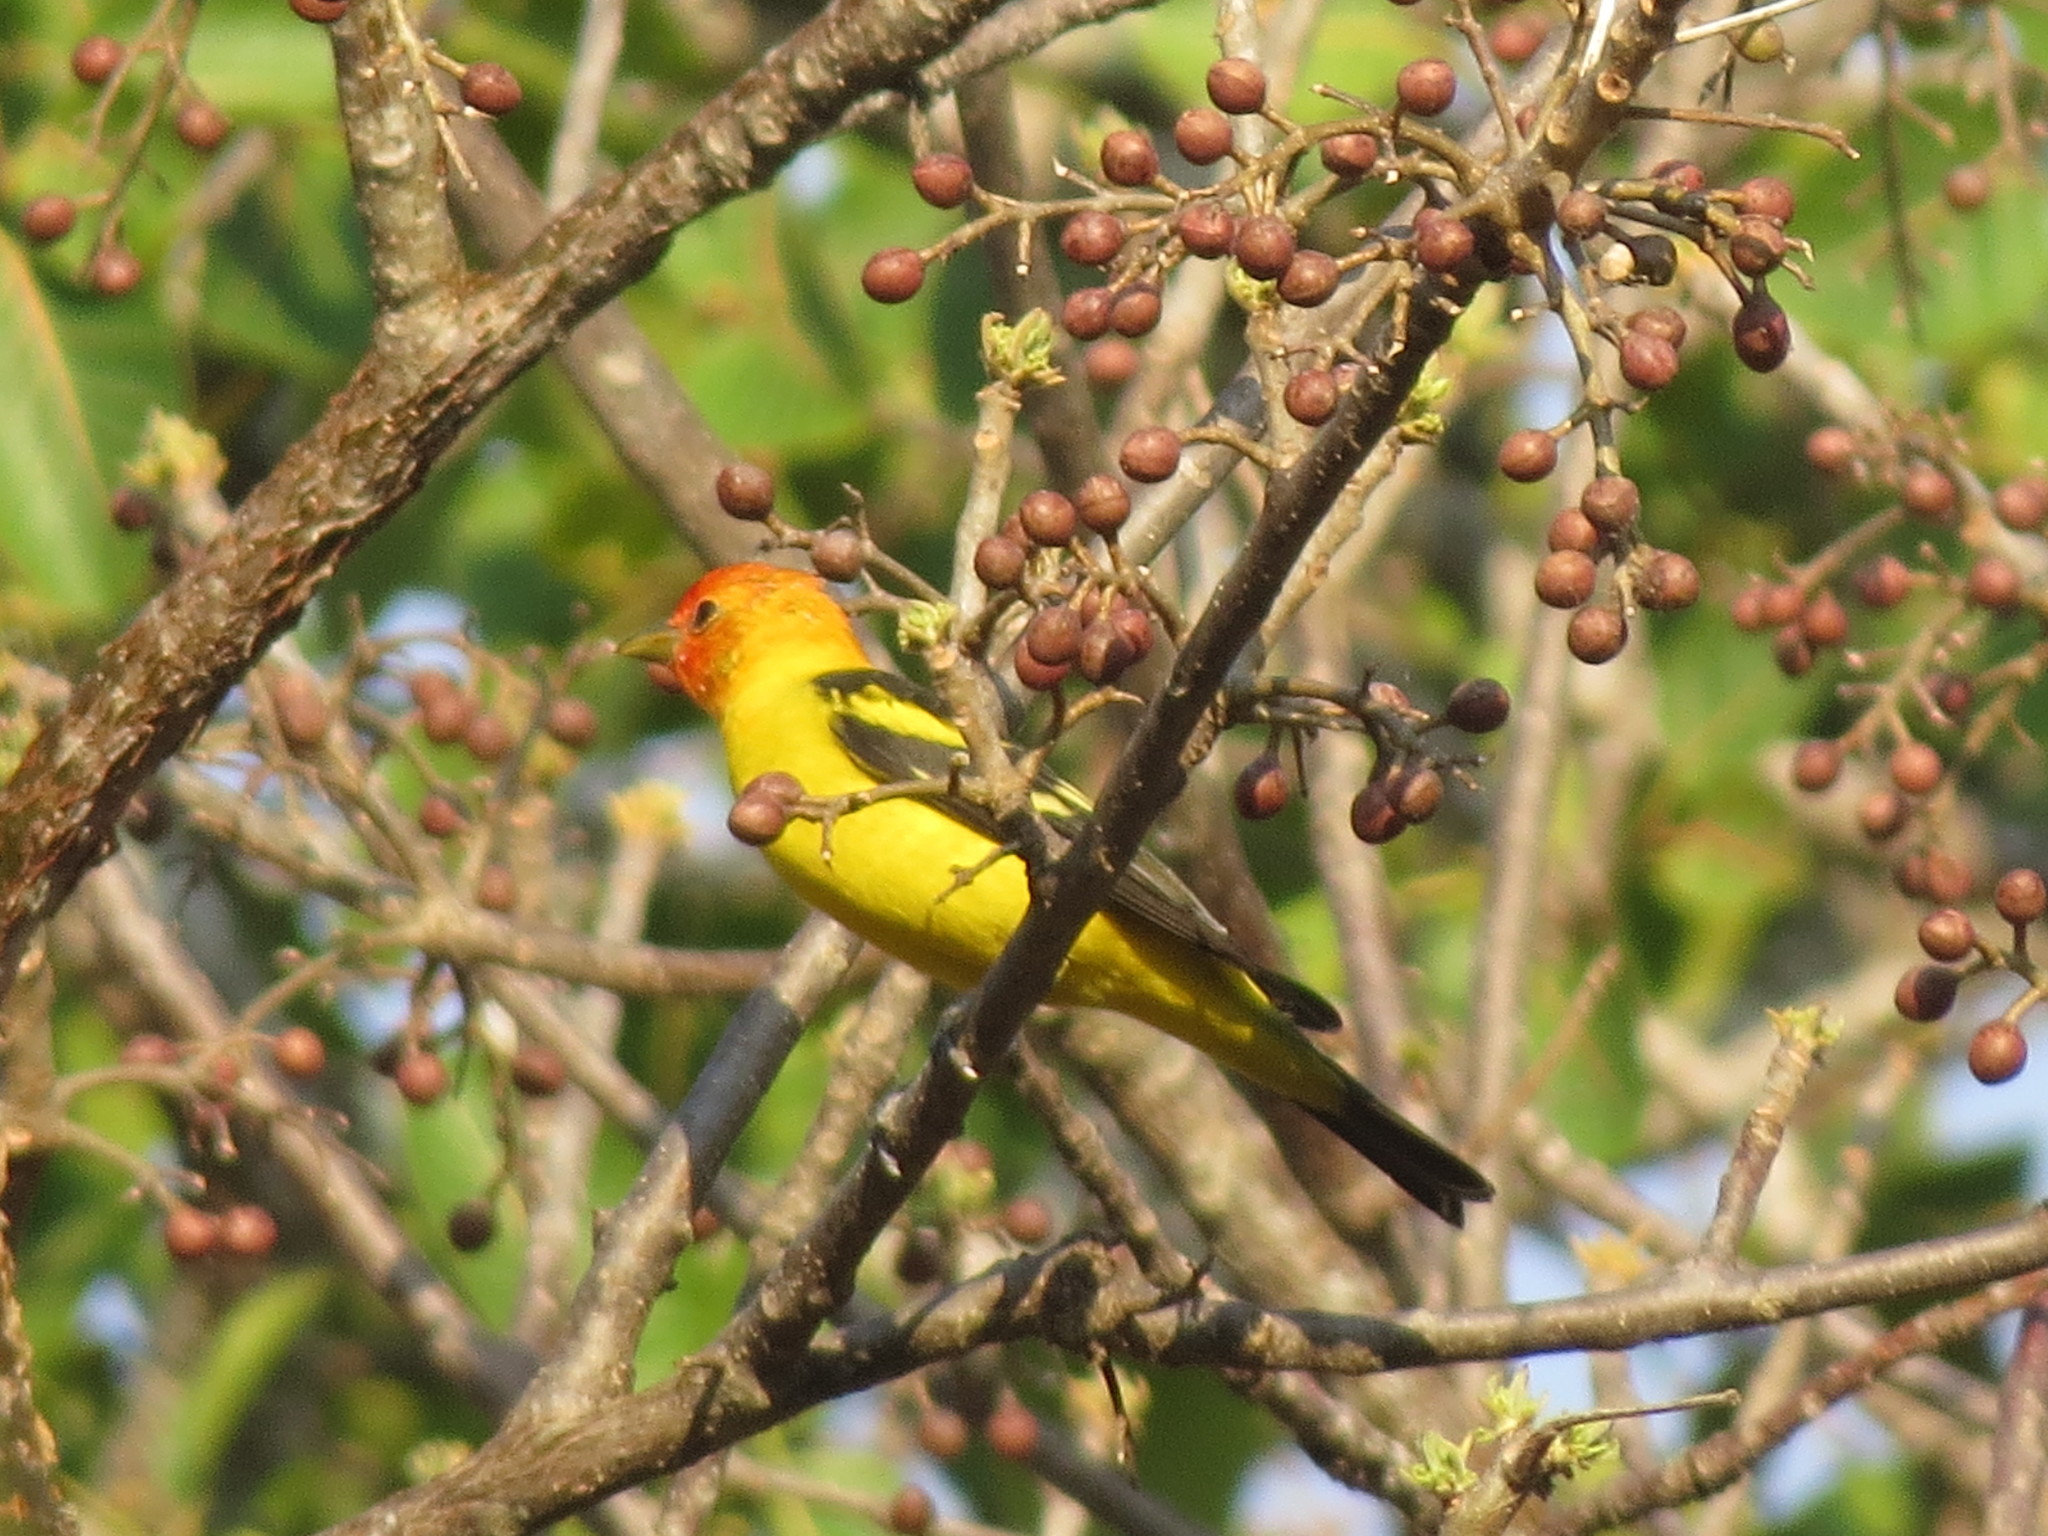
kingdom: Animalia
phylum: Chordata
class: Aves
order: Passeriformes
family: Cardinalidae
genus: Piranga
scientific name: Piranga ludoviciana
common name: Western tanager
